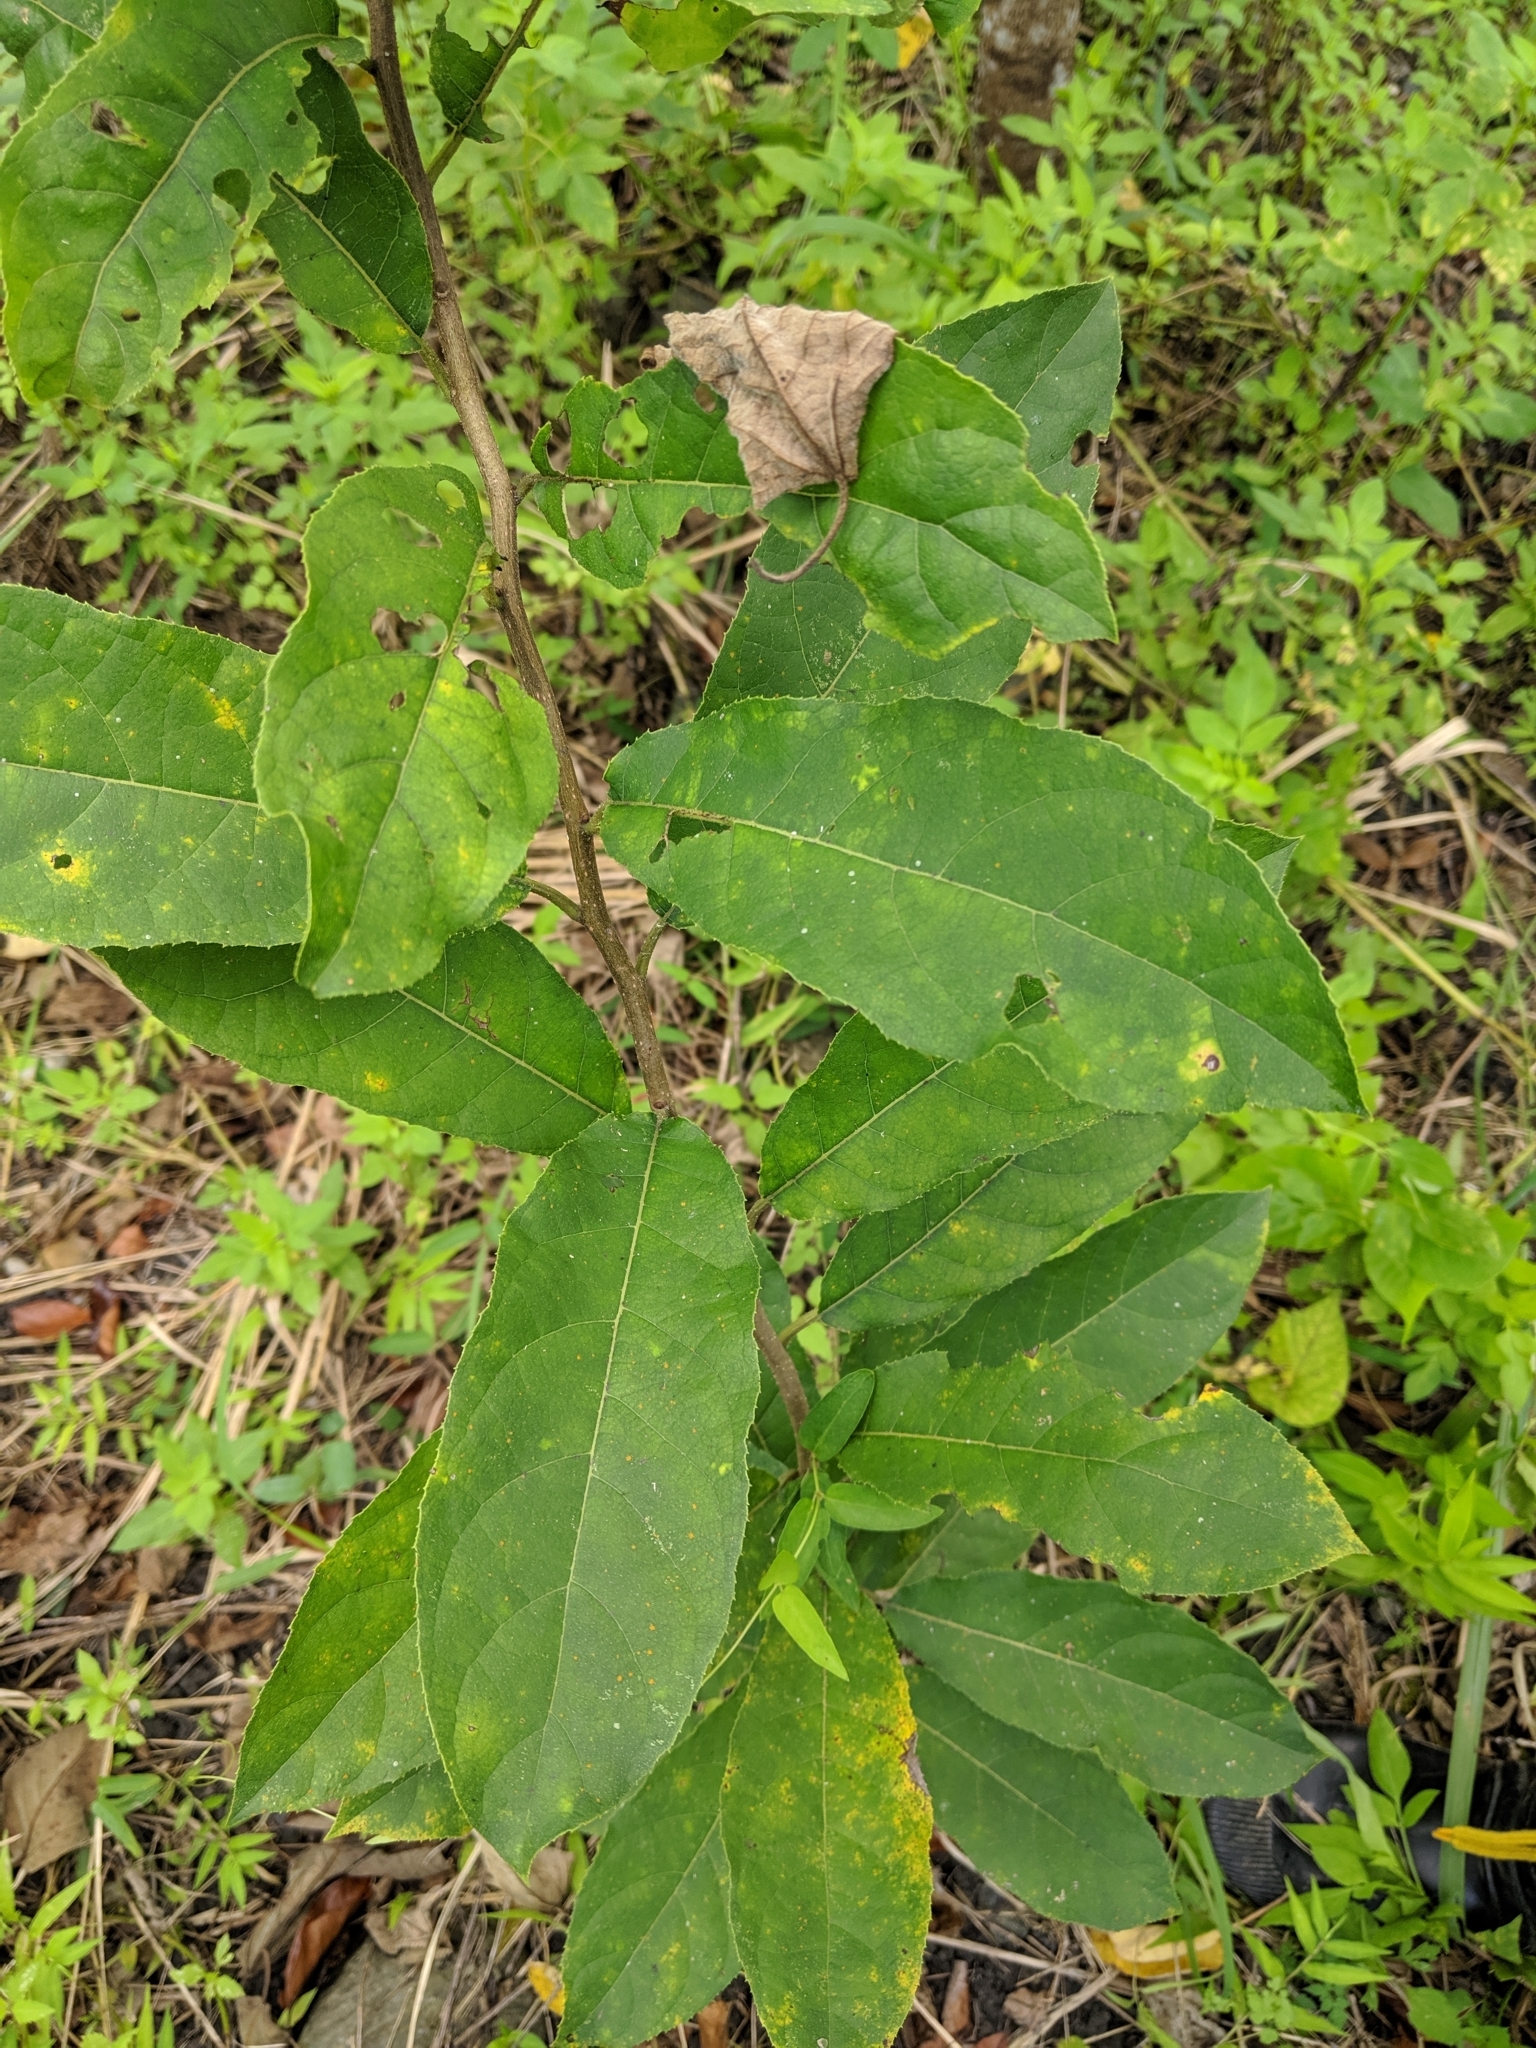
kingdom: Plantae
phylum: Tracheophyta
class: Magnoliopsida
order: Boraginales
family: Ehretiaceae
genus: Ehretia
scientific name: Ehretia acuminata
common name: Kodo wood
